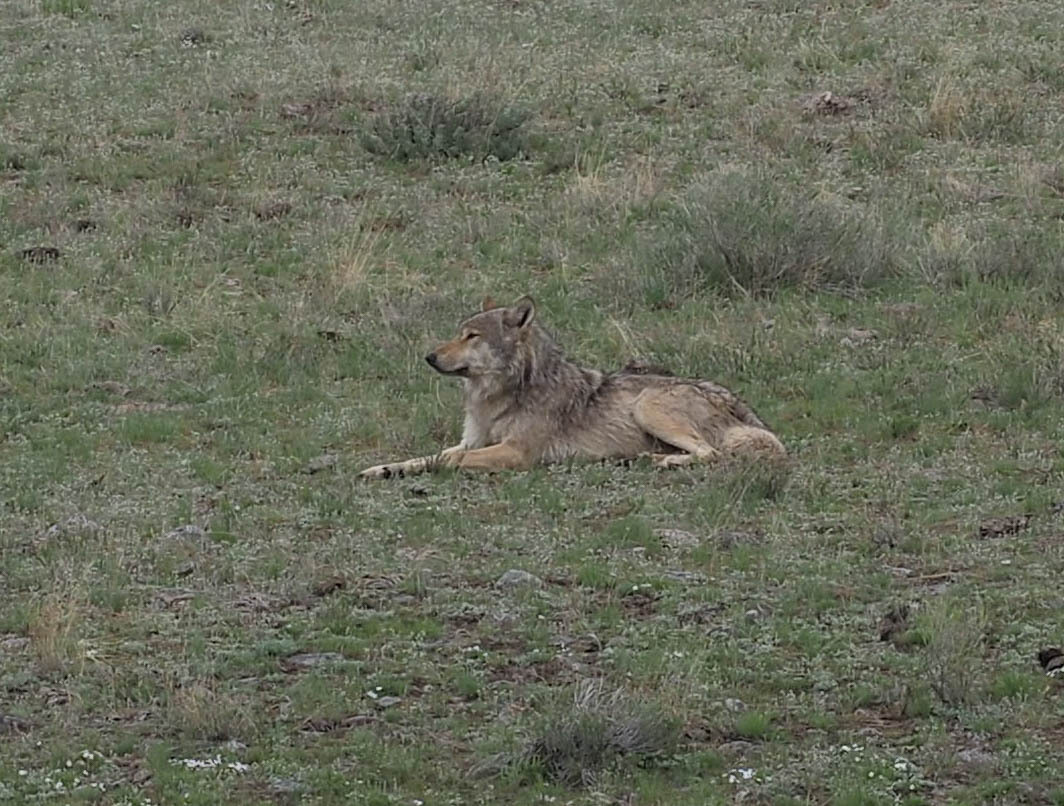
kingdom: Animalia
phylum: Chordata
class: Mammalia
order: Carnivora
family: Canidae
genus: Canis
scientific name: Canis lupus
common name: Gray wolf
